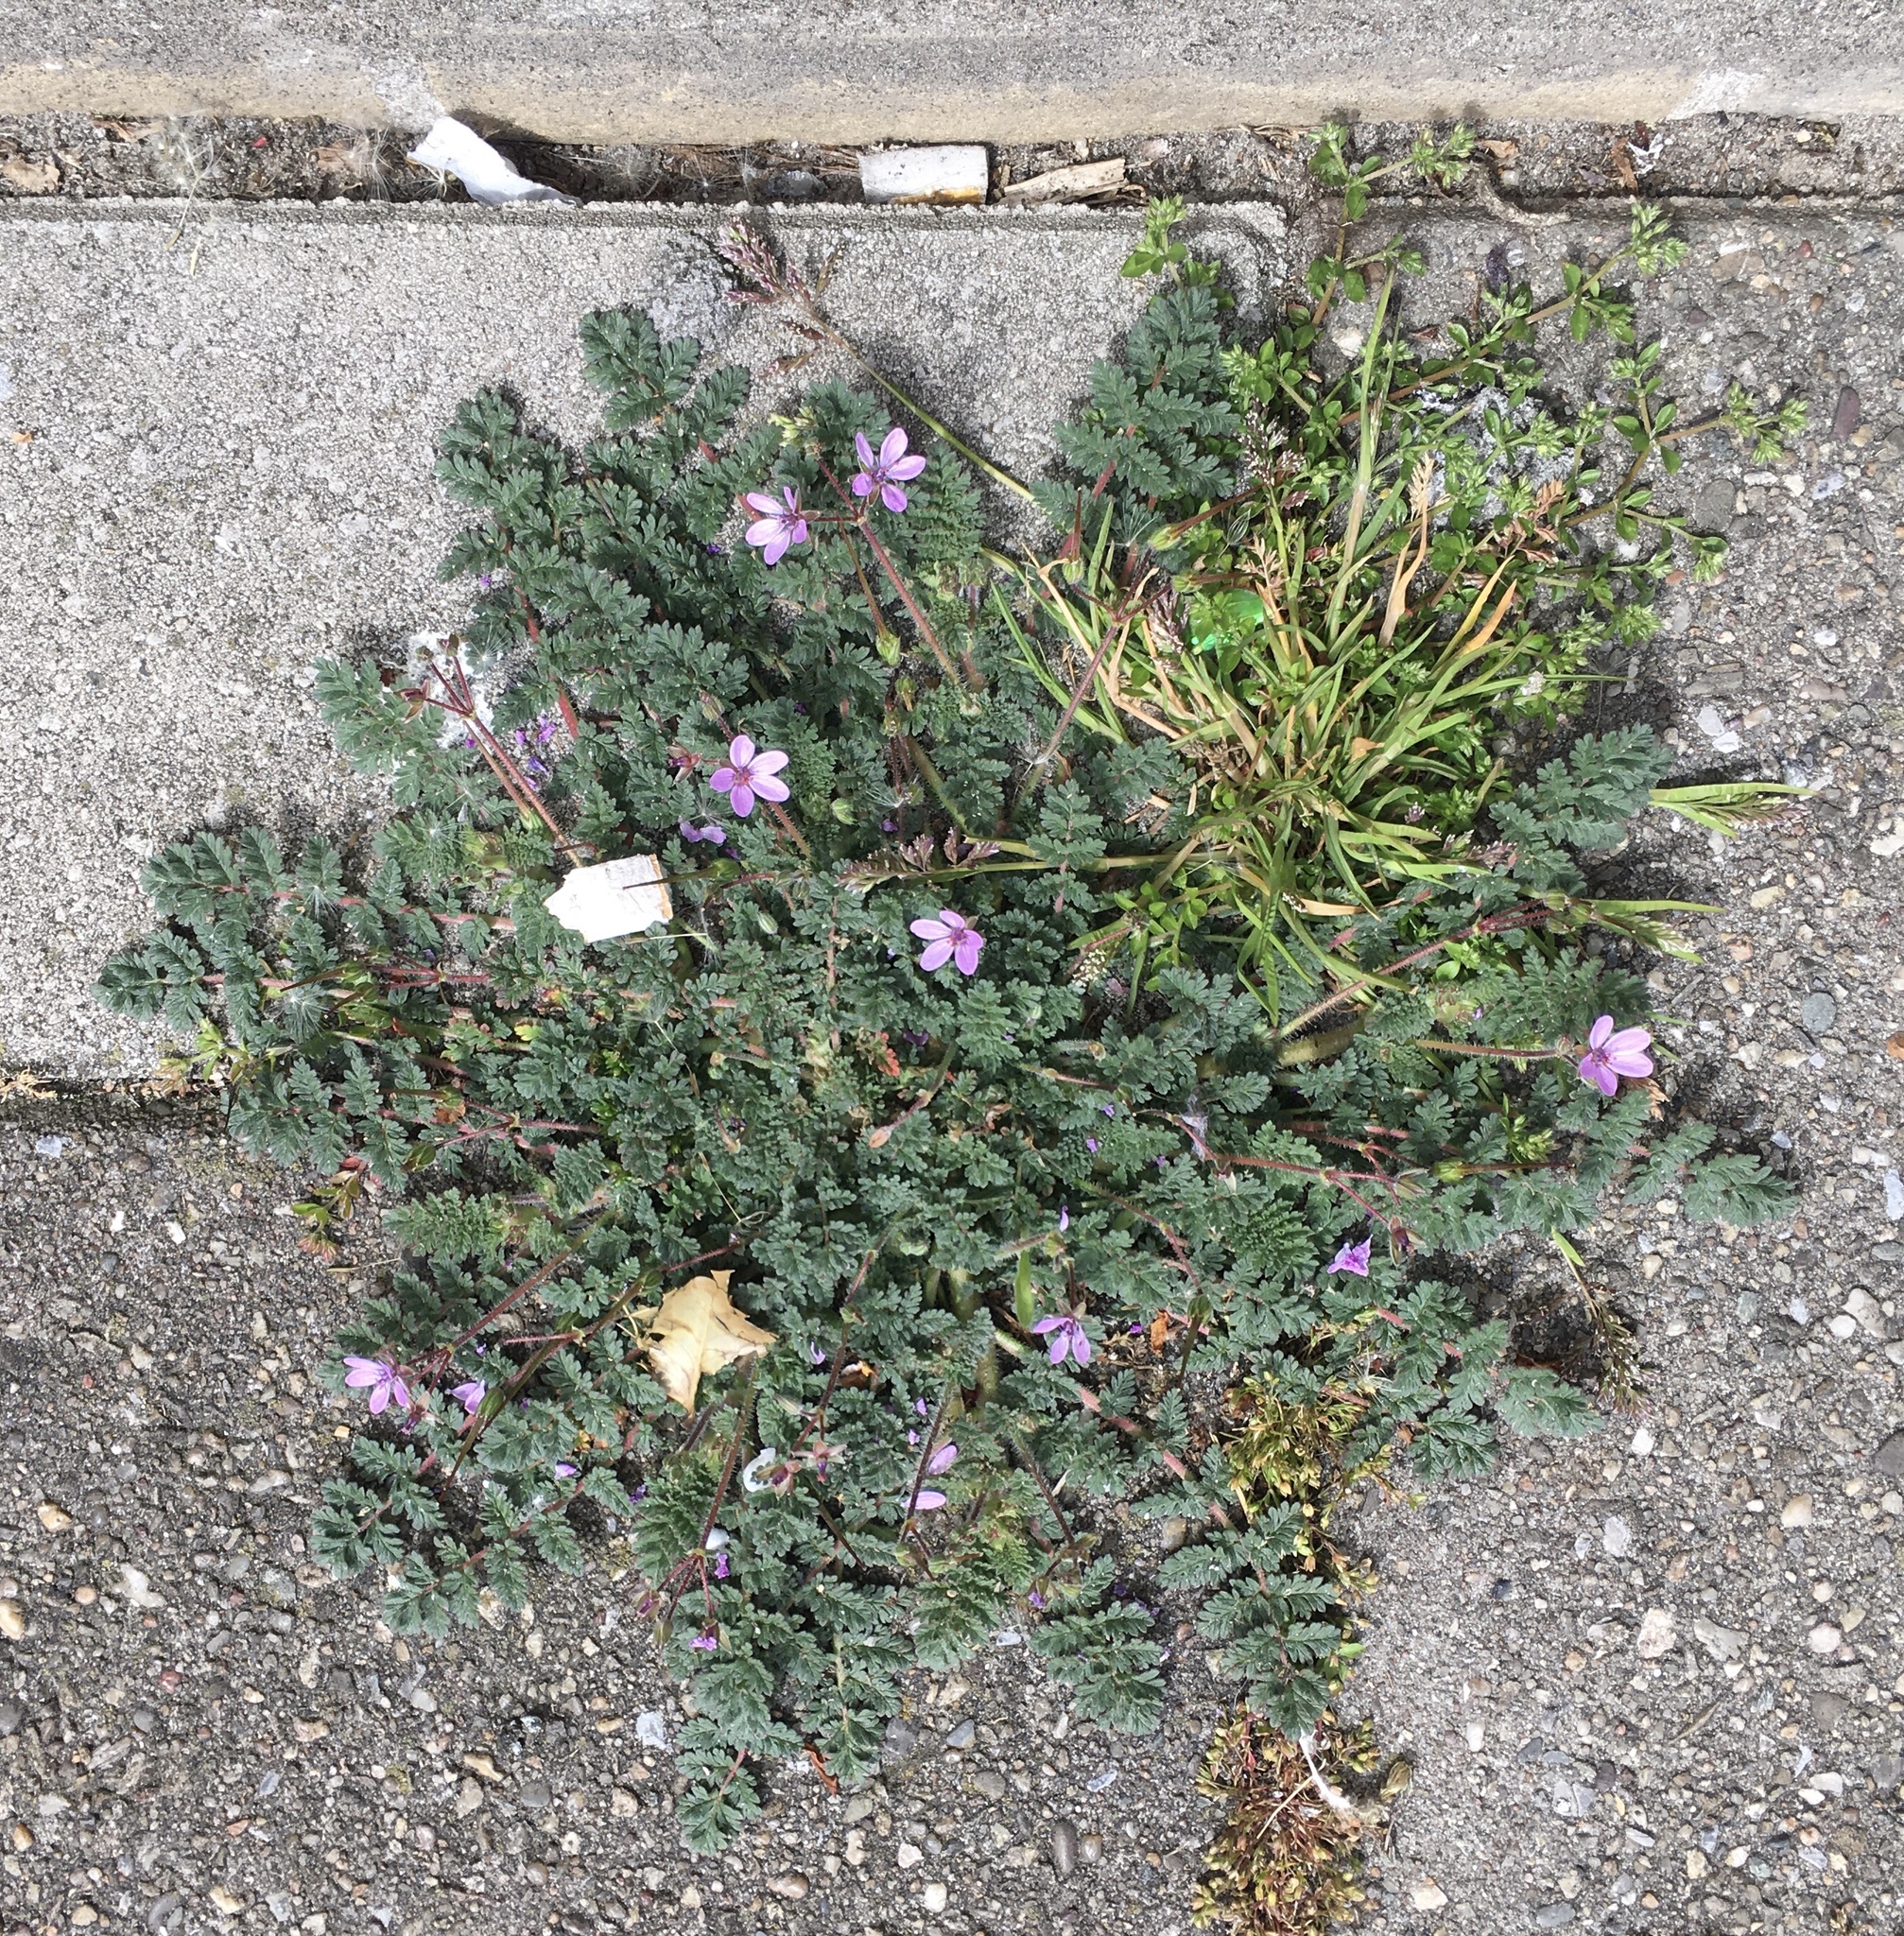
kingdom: Plantae
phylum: Tracheophyta
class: Magnoliopsida
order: Geraniales
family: Geraniaceae
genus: Erodium
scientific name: Erodium cicutarium
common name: Common stork's-bill
